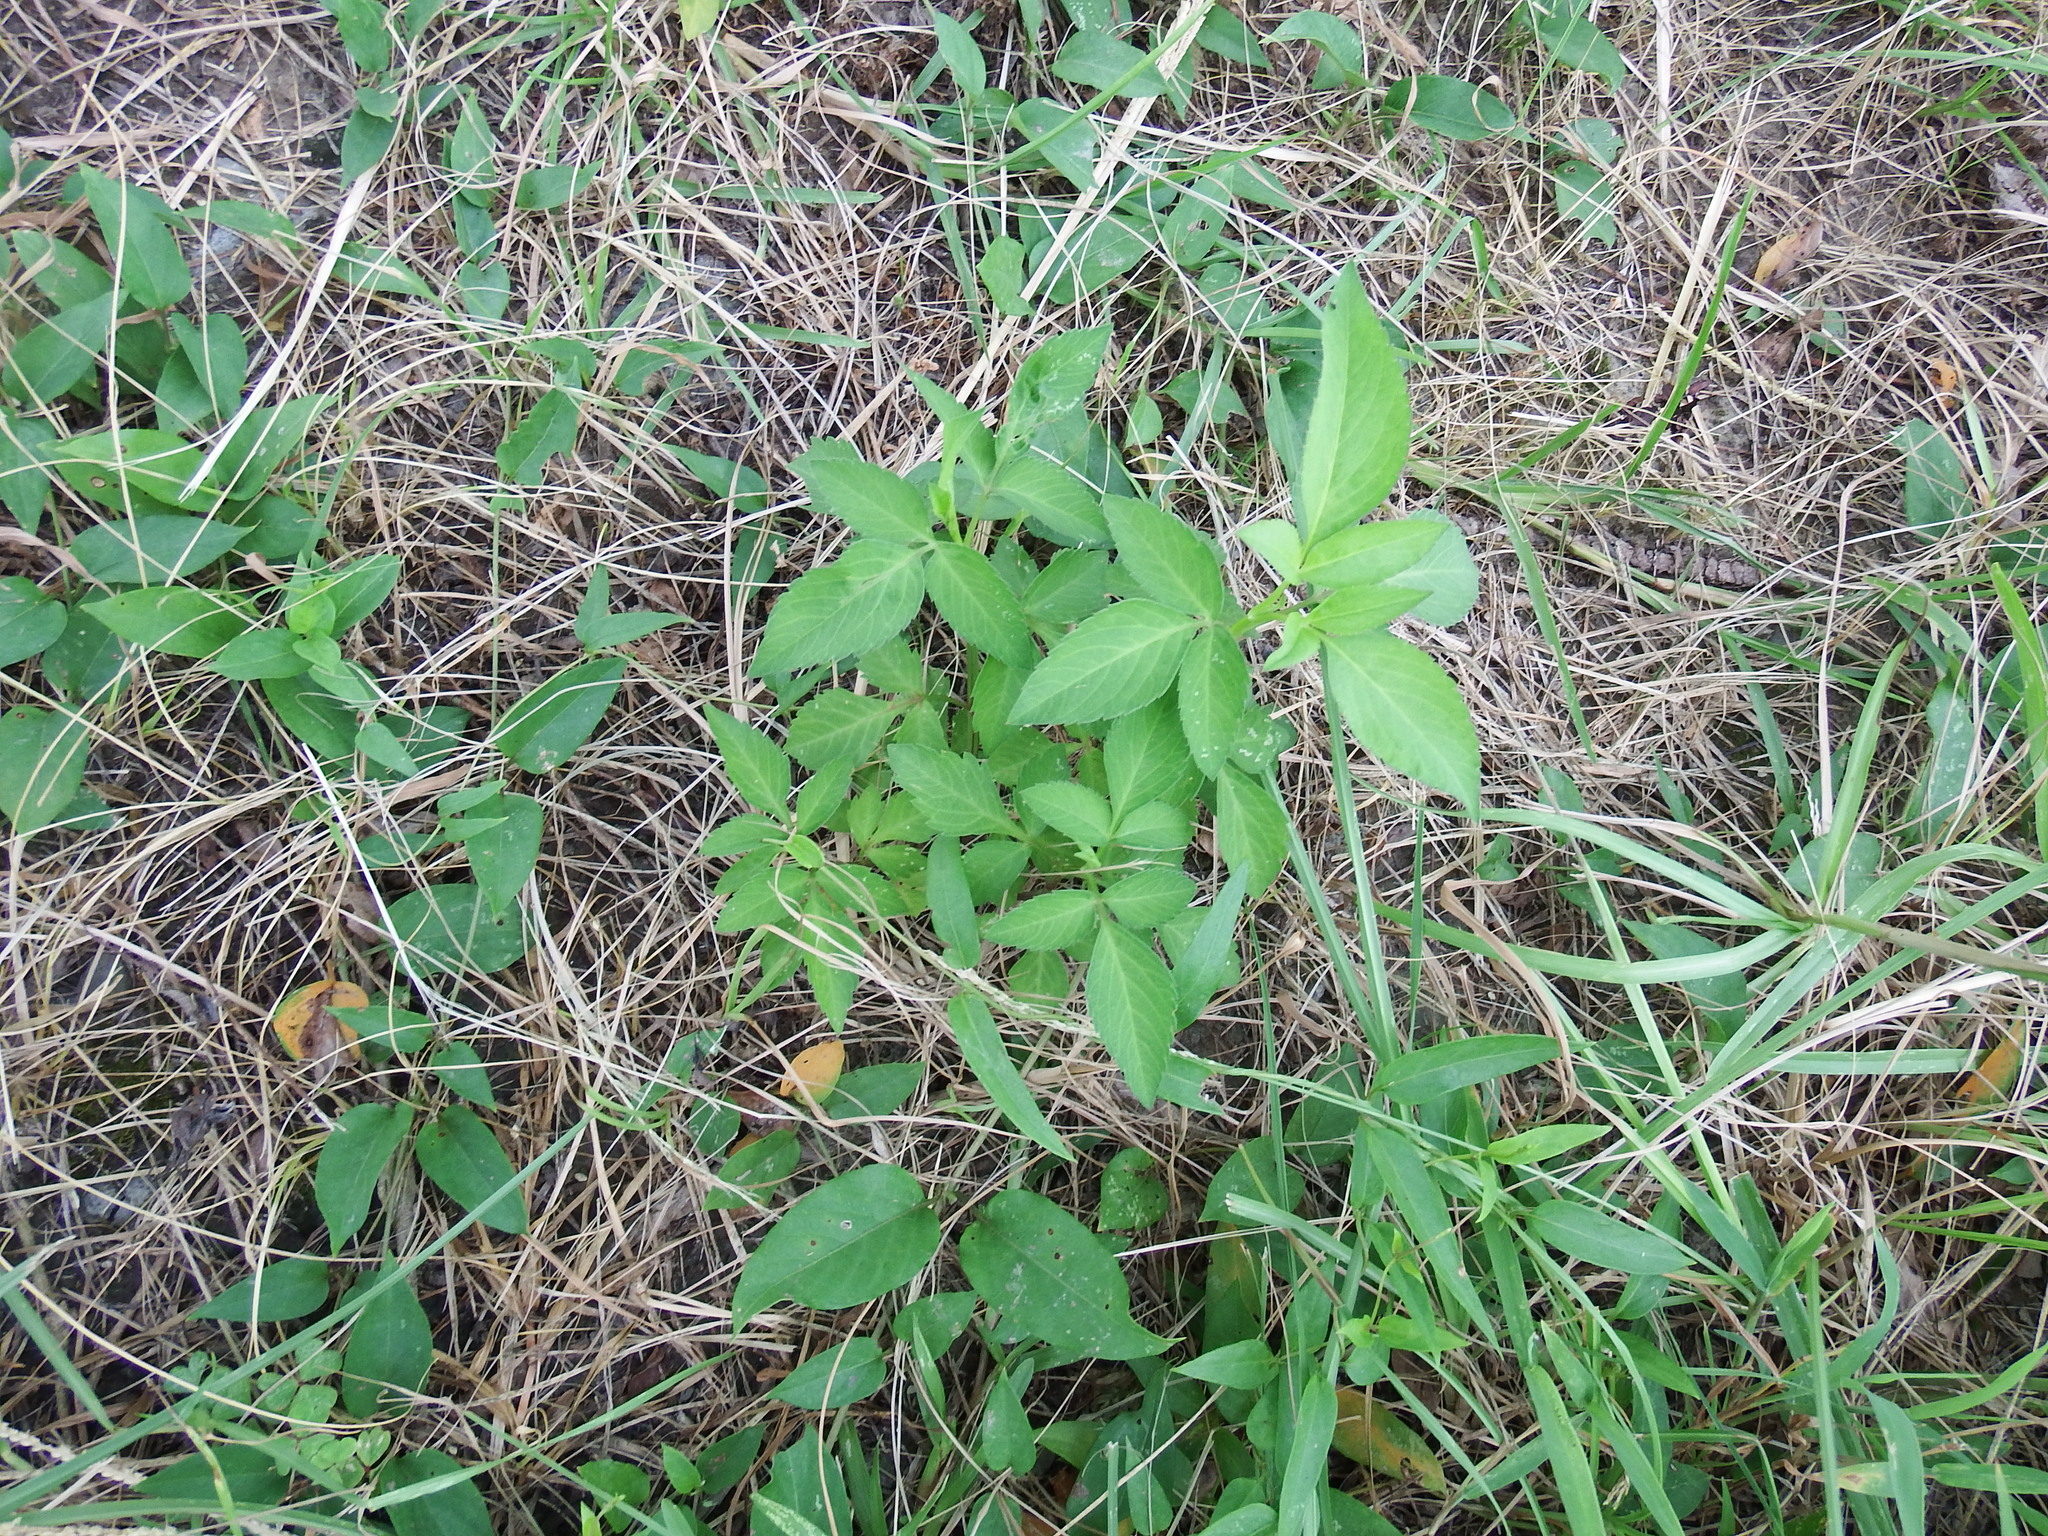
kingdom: Plantae
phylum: Tracheophyta
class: Magnoliopsida
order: Asterales
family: Asteraceae
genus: Bidens
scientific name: Bidens alba
